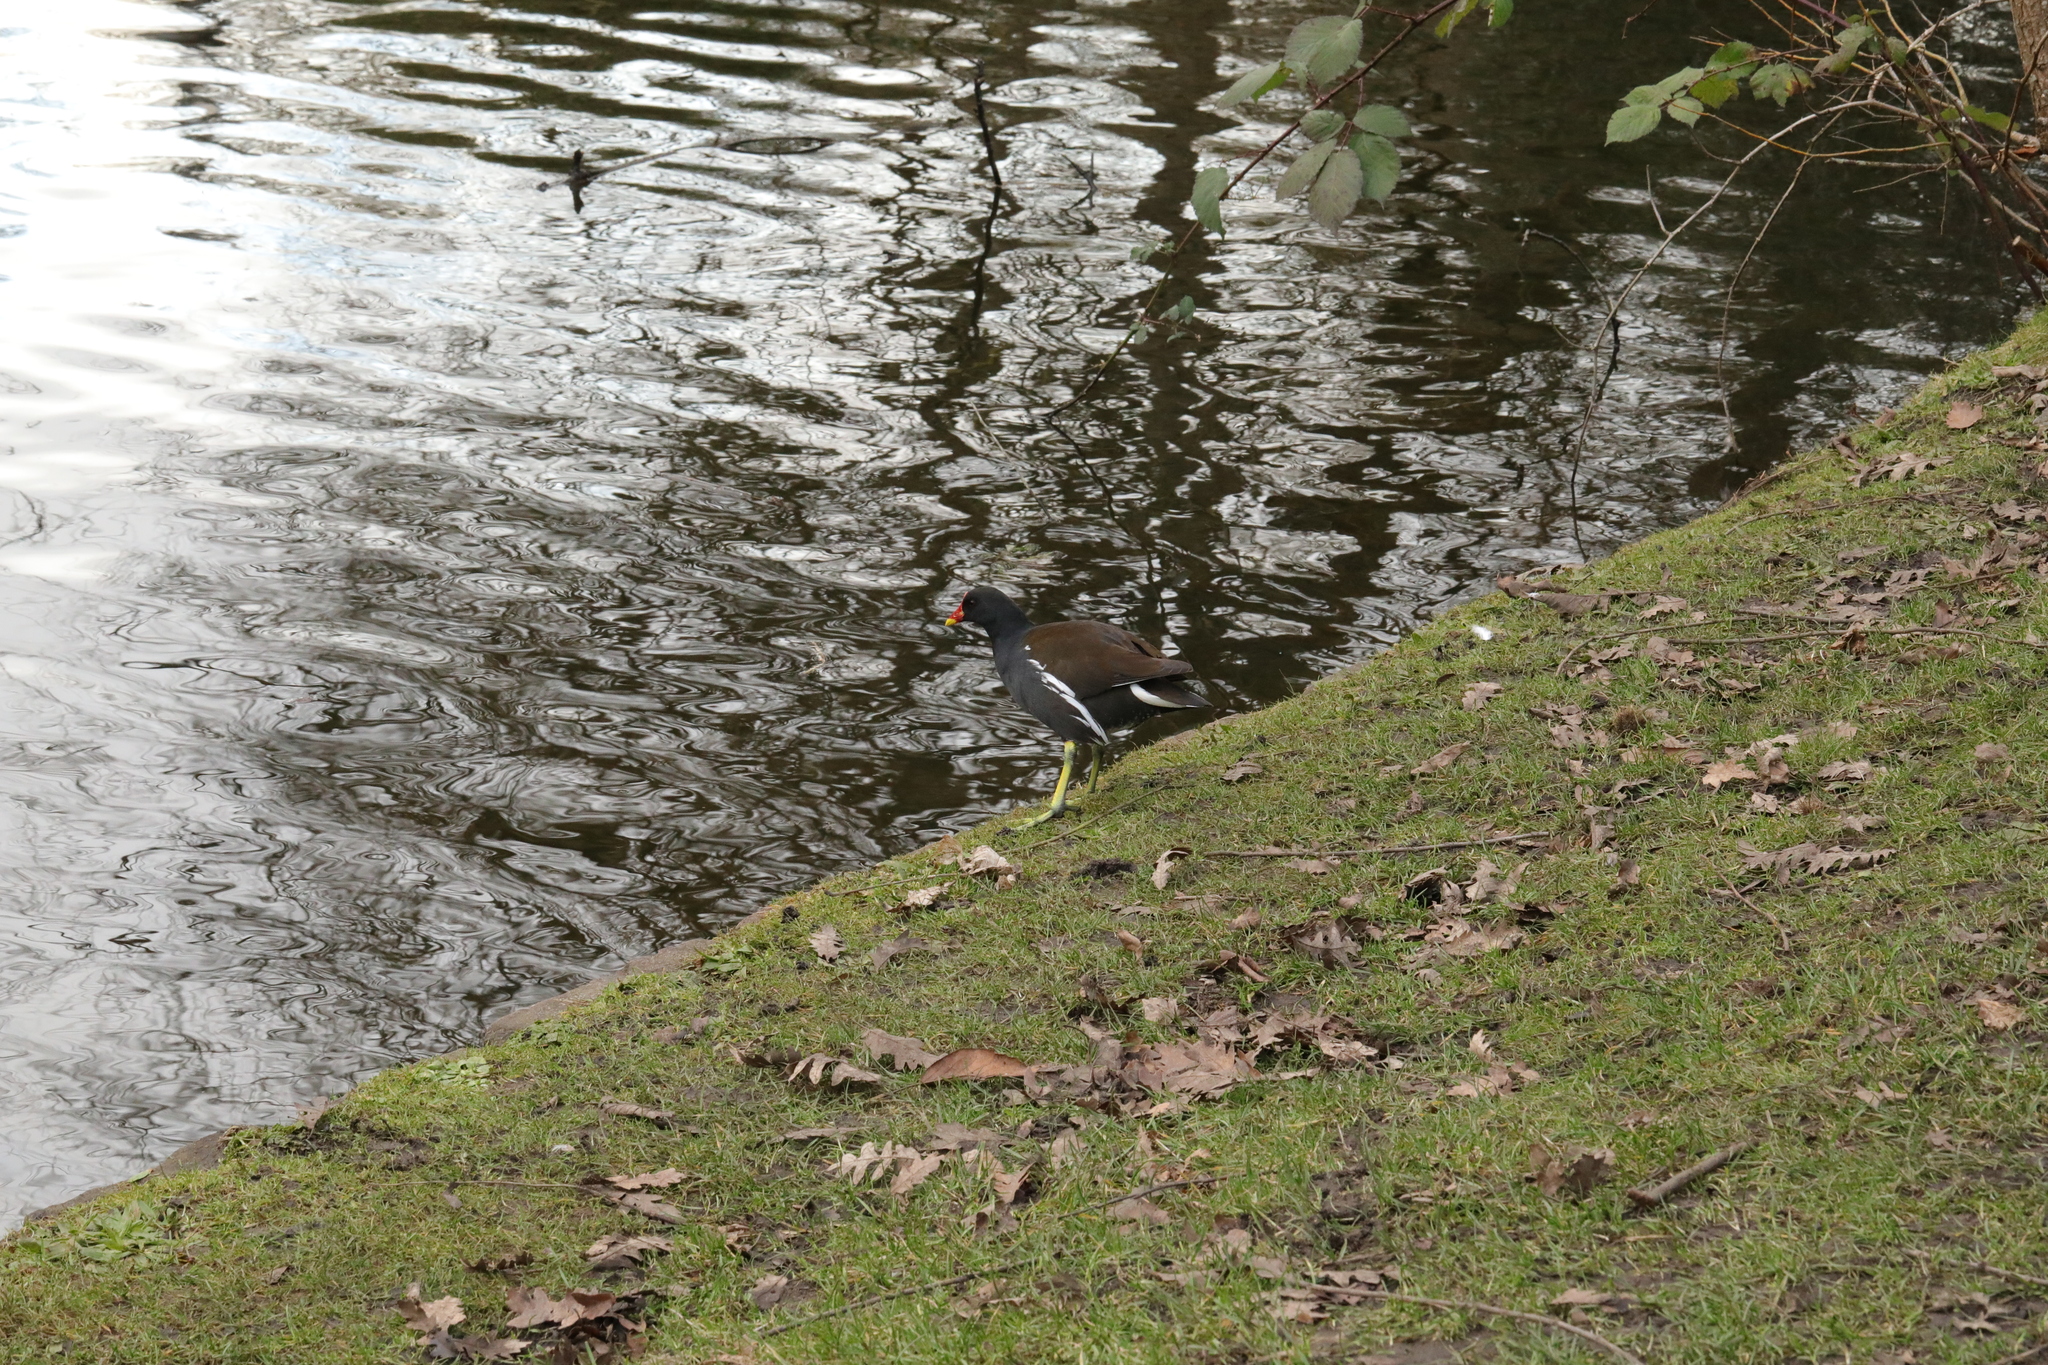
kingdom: Animalia
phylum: Chordata
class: Aves
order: Gruiformes
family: Rallidae
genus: Gallinula
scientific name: Gallinula chloropus
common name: Common moorhen
